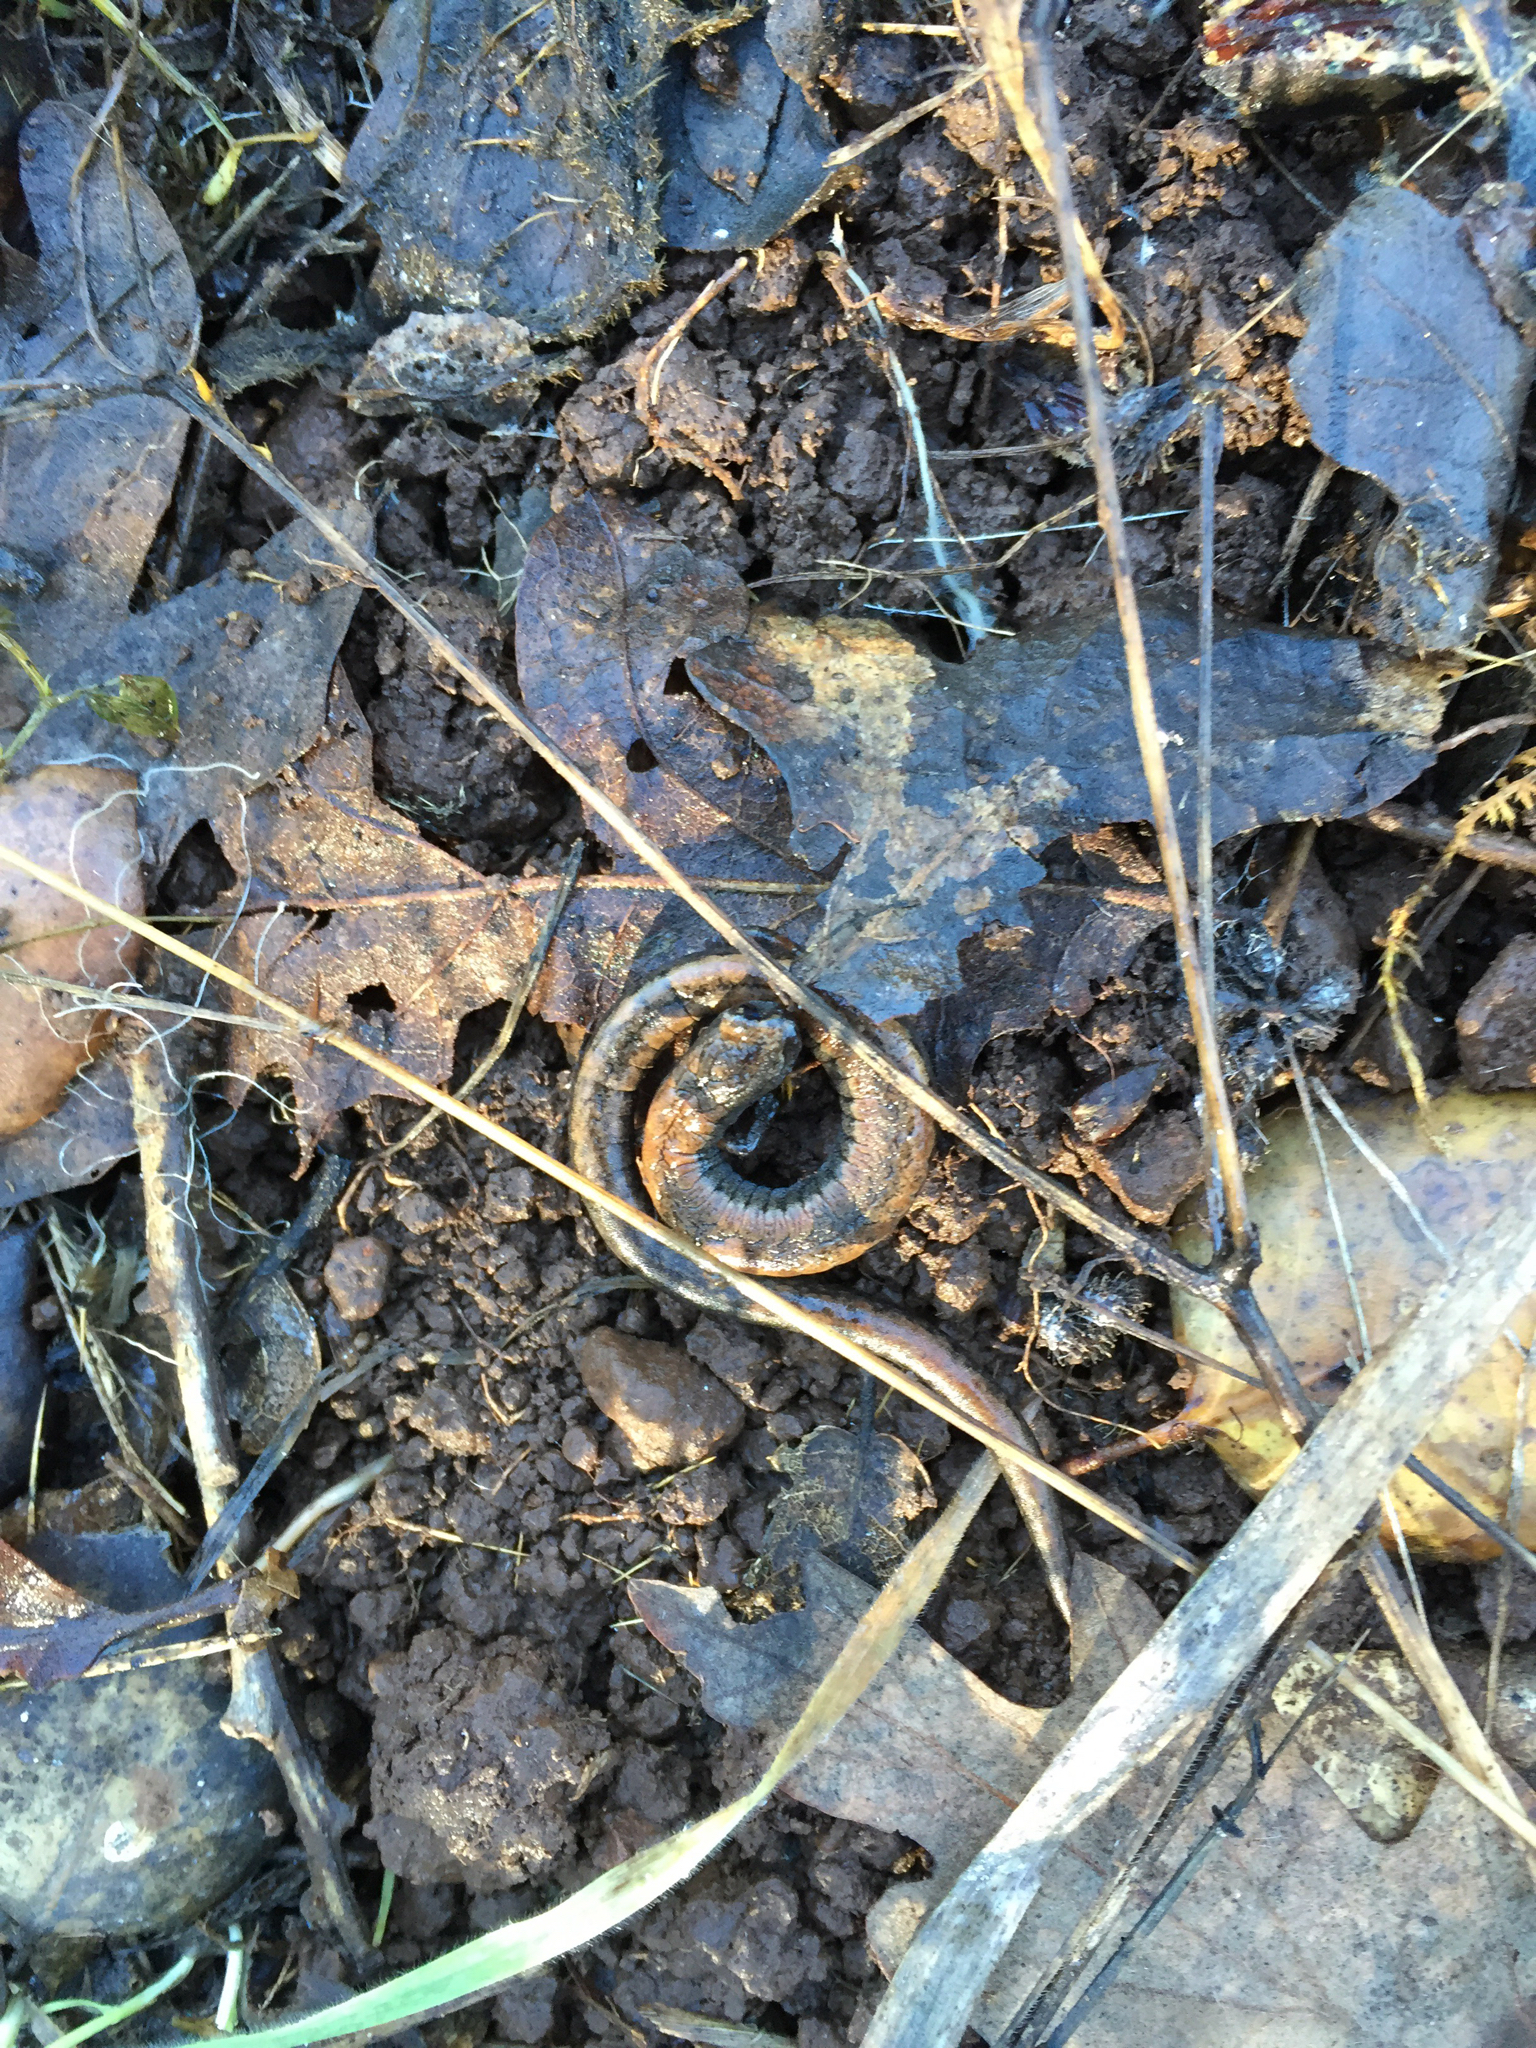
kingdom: Animalia
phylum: Chordata
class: Amphibia
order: Caudata
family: Plethodontidae
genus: Batrachoseps
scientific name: Batrachoseps attenuatus
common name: California slender salamander
